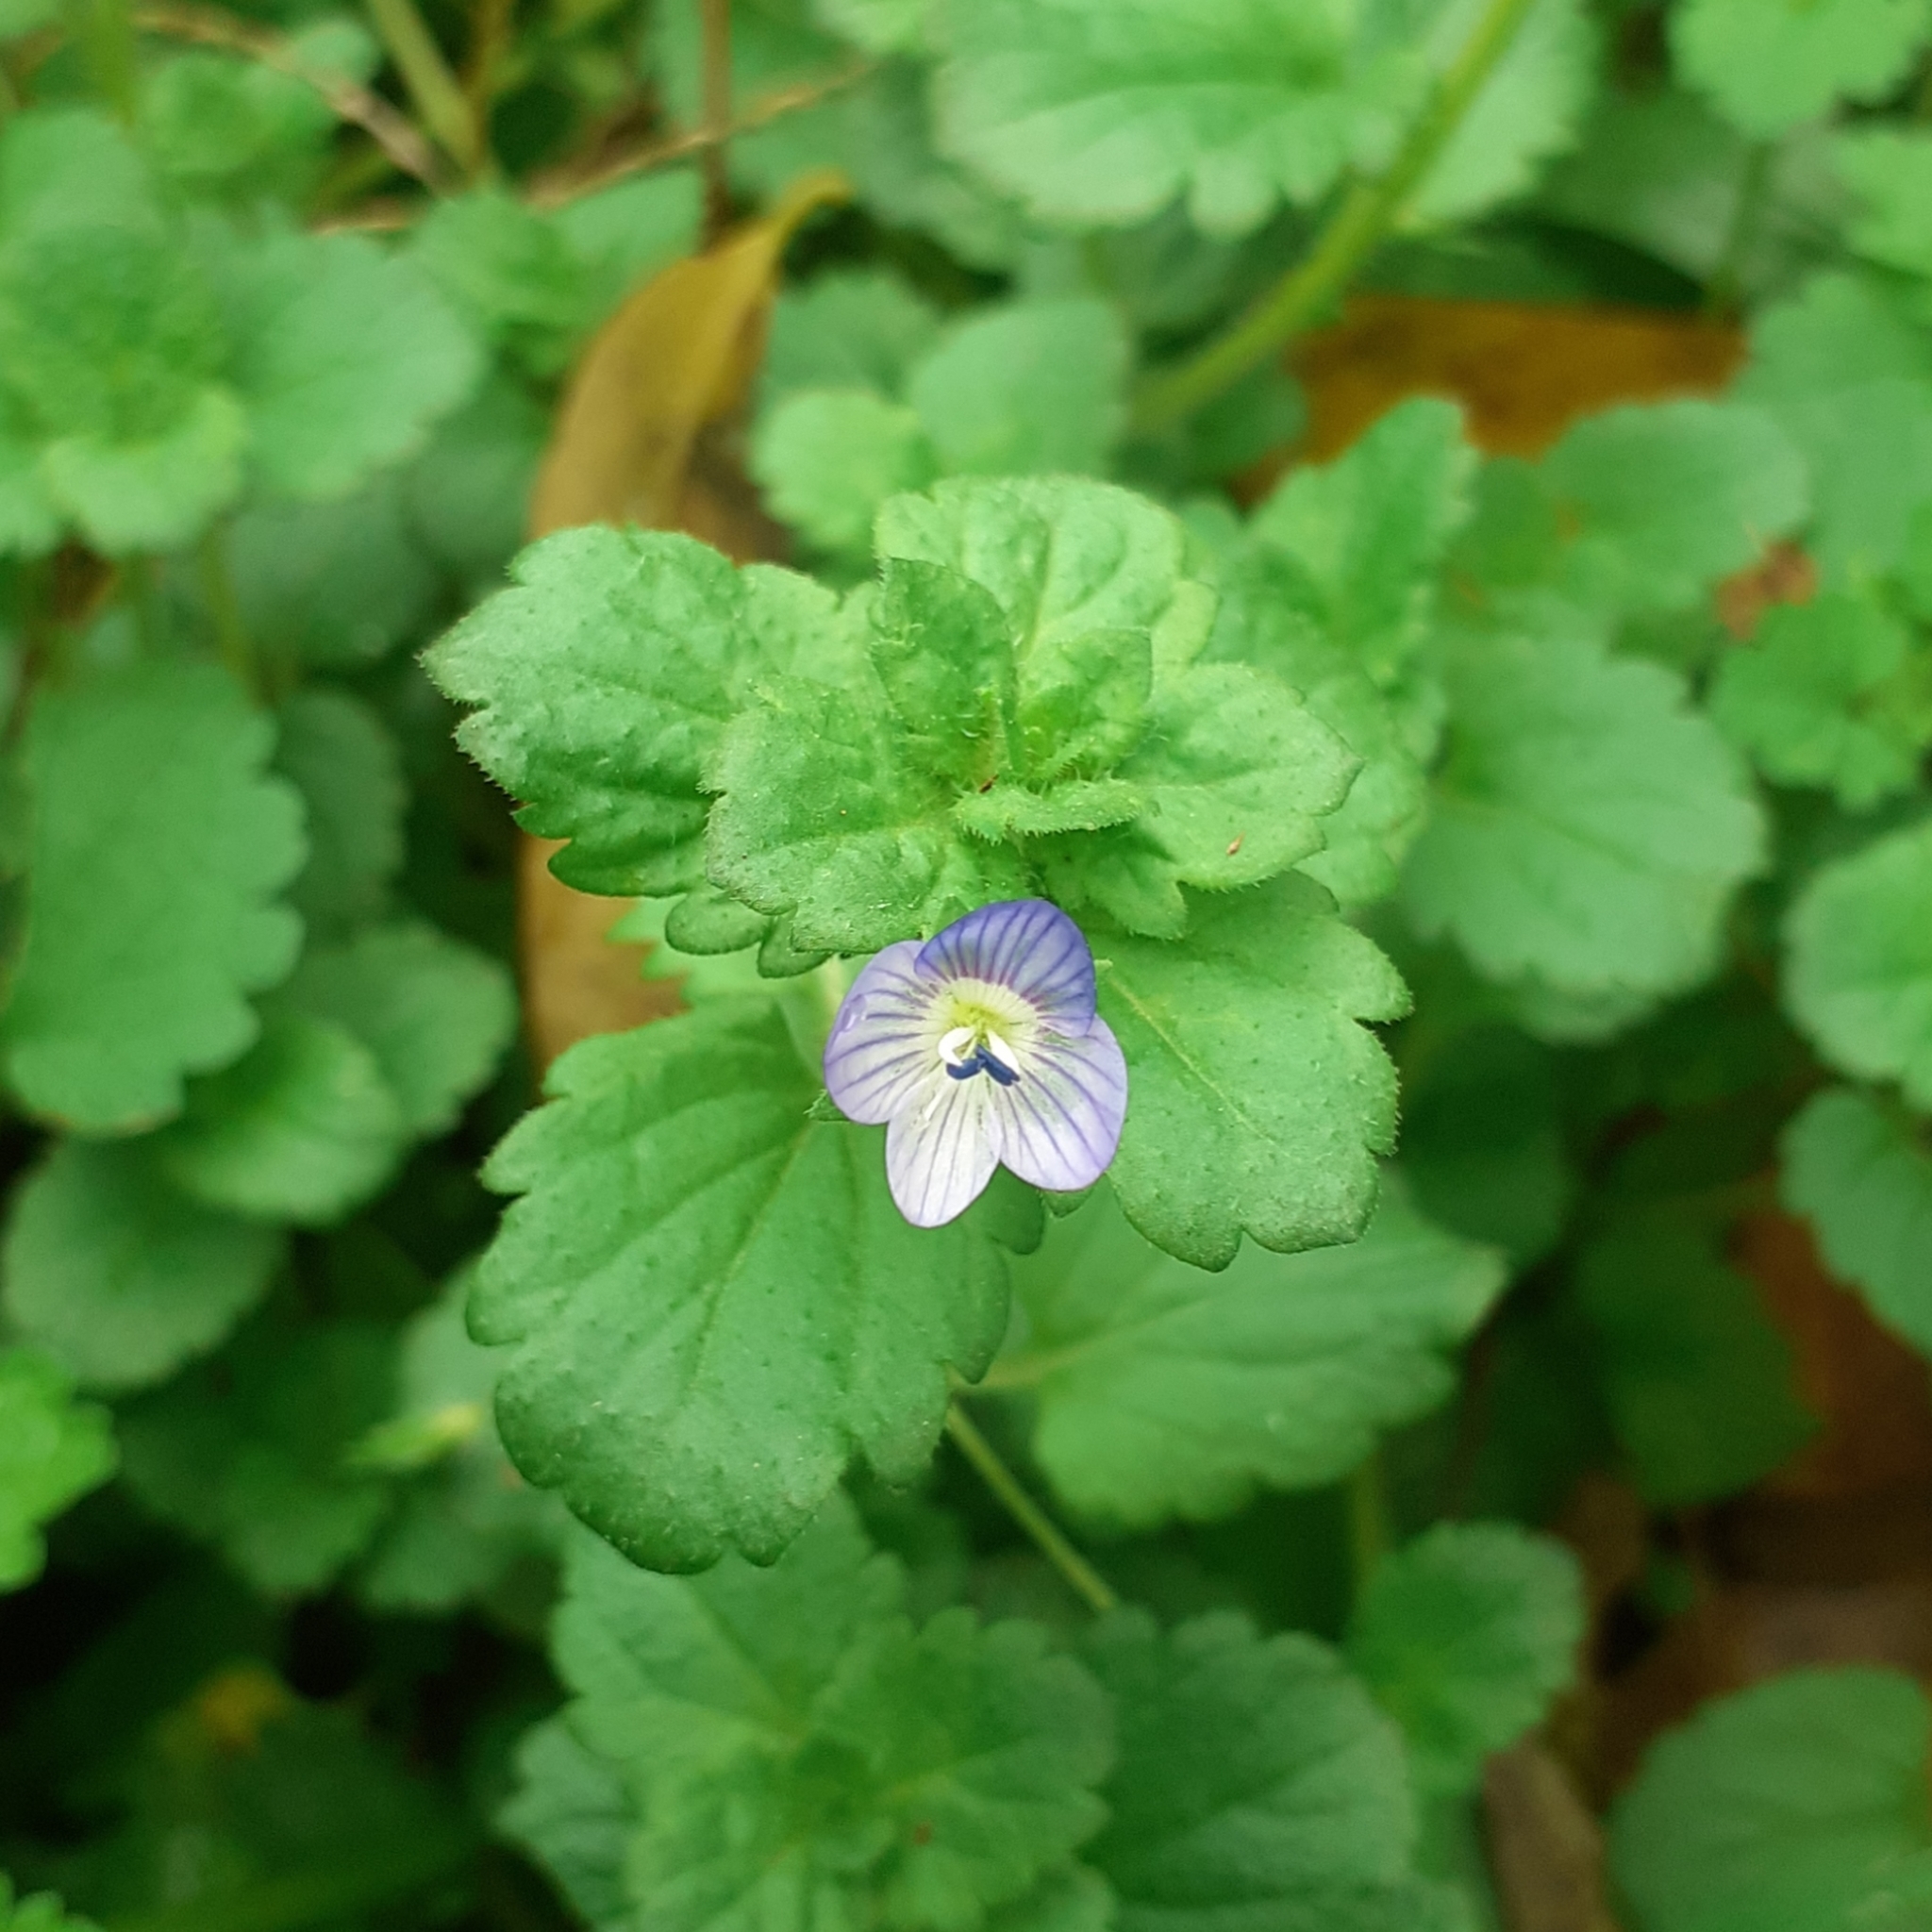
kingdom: Plantae
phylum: Tracheophyta
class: Magnoliopsida
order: Lamiales
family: Plantaginaceae
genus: Veronica
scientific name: Veronica persica
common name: Common field-speedwell
